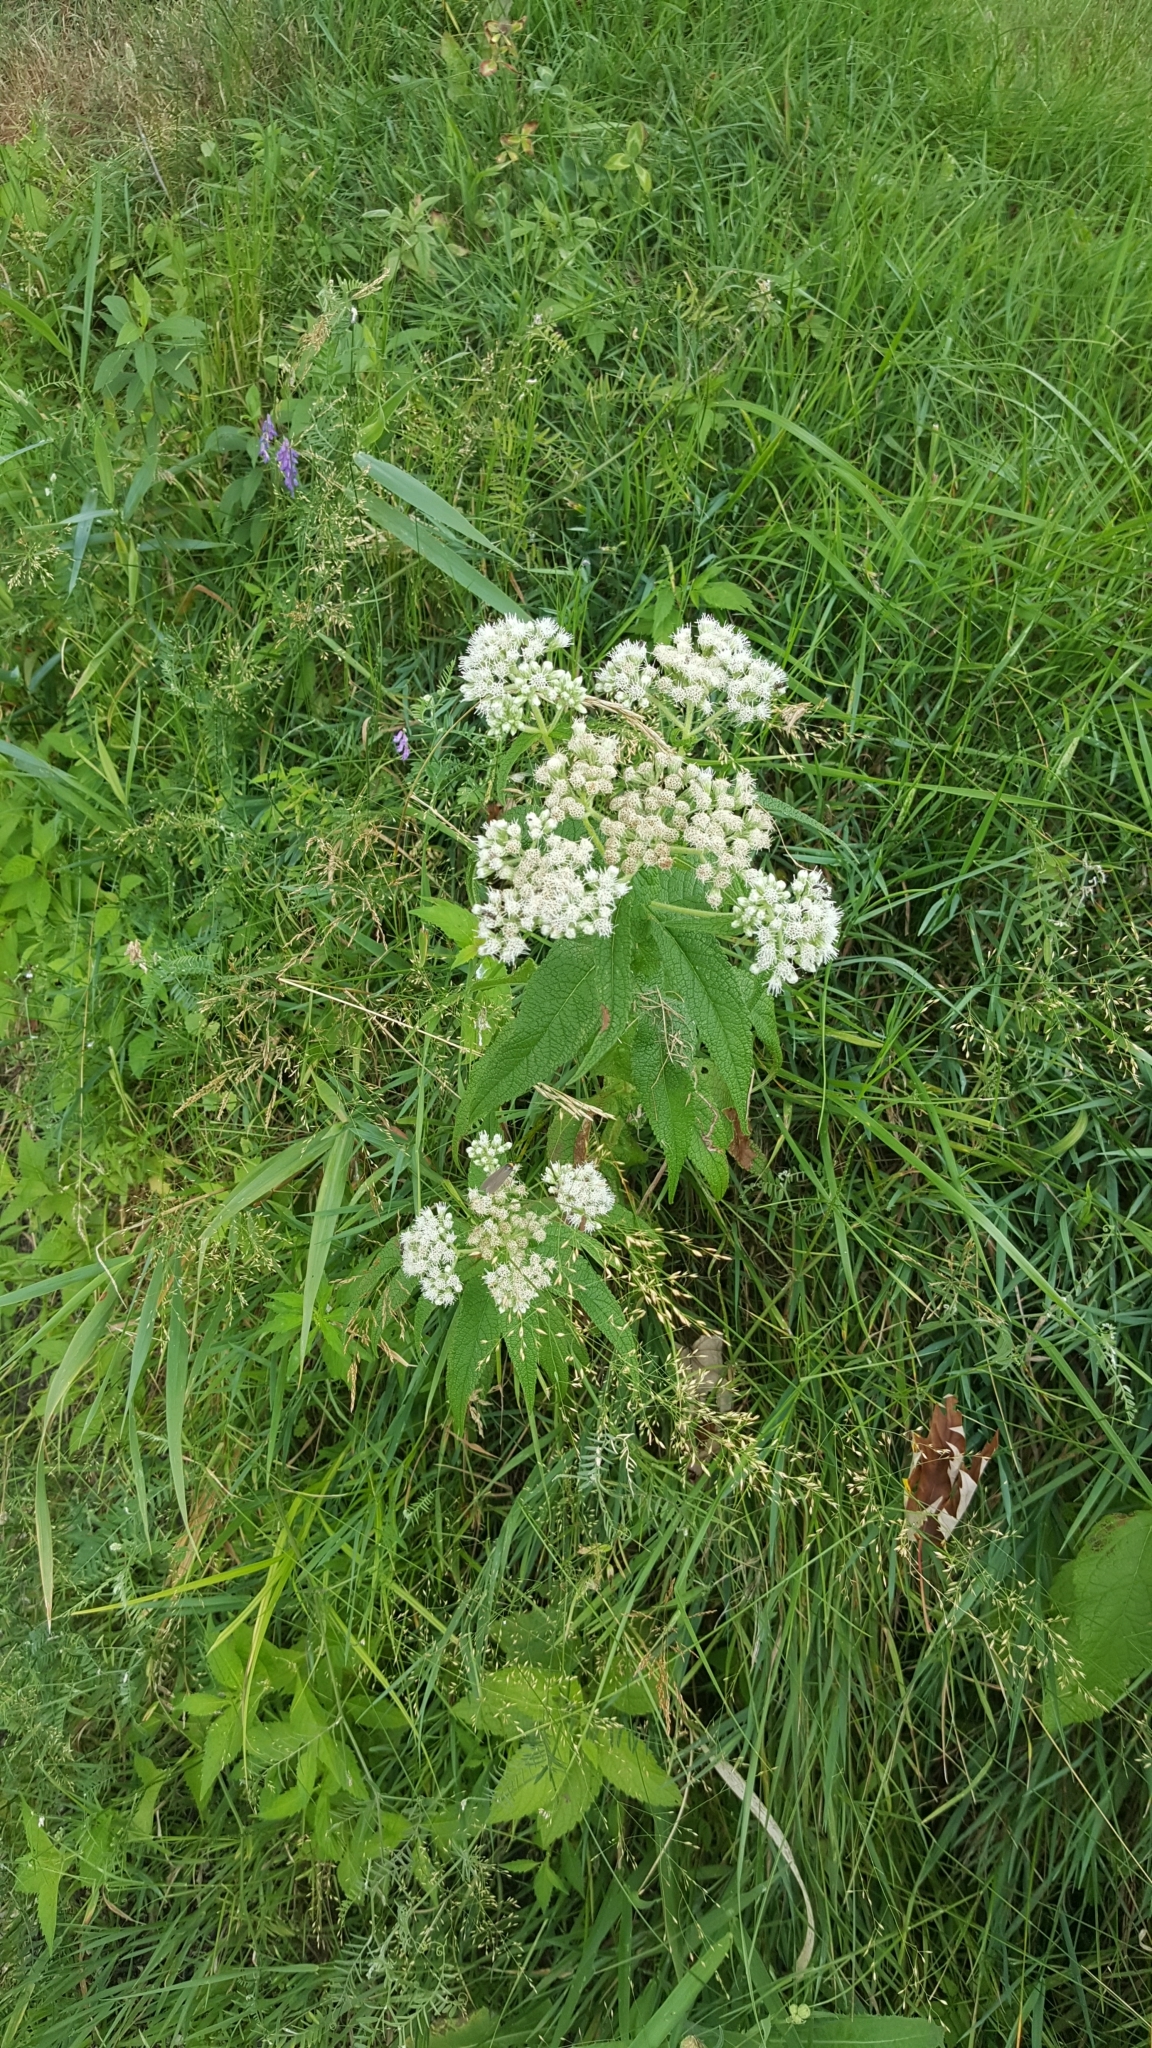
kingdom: Plantae
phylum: Tracheophyta
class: Magnoliopsida
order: Asterales
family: Asteraceae
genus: Eupatorium
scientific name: Eupatorium perfoliatum
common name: Boneset
